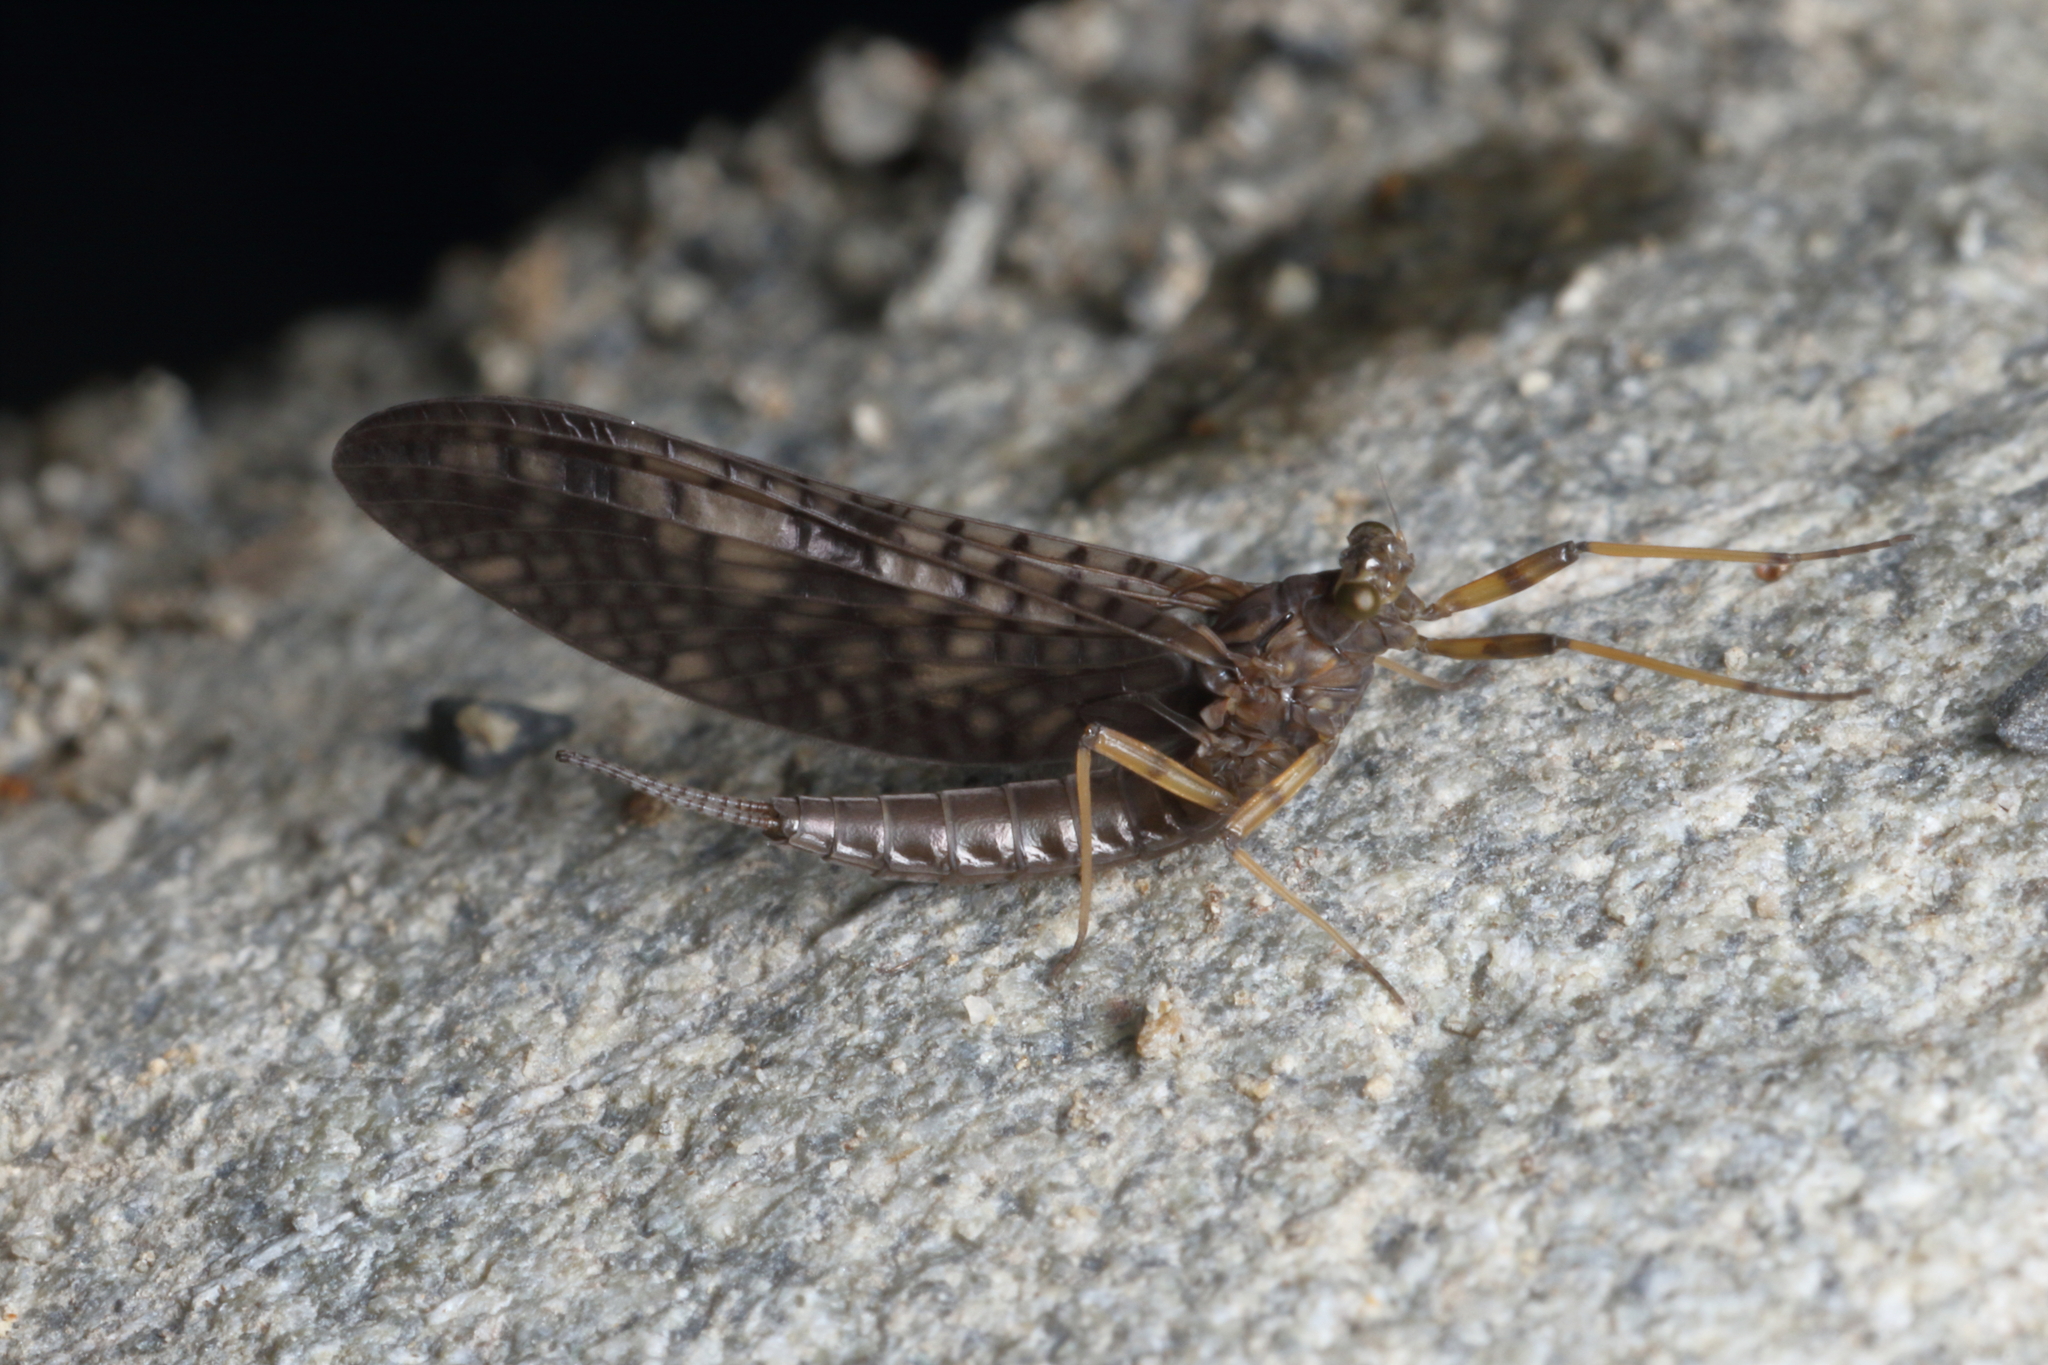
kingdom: Animalia
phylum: Arthropoda
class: Insecta
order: Ephemeroptera
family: Leptophlebiidae
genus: Neozephlebia
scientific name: Neozephlebia scita
